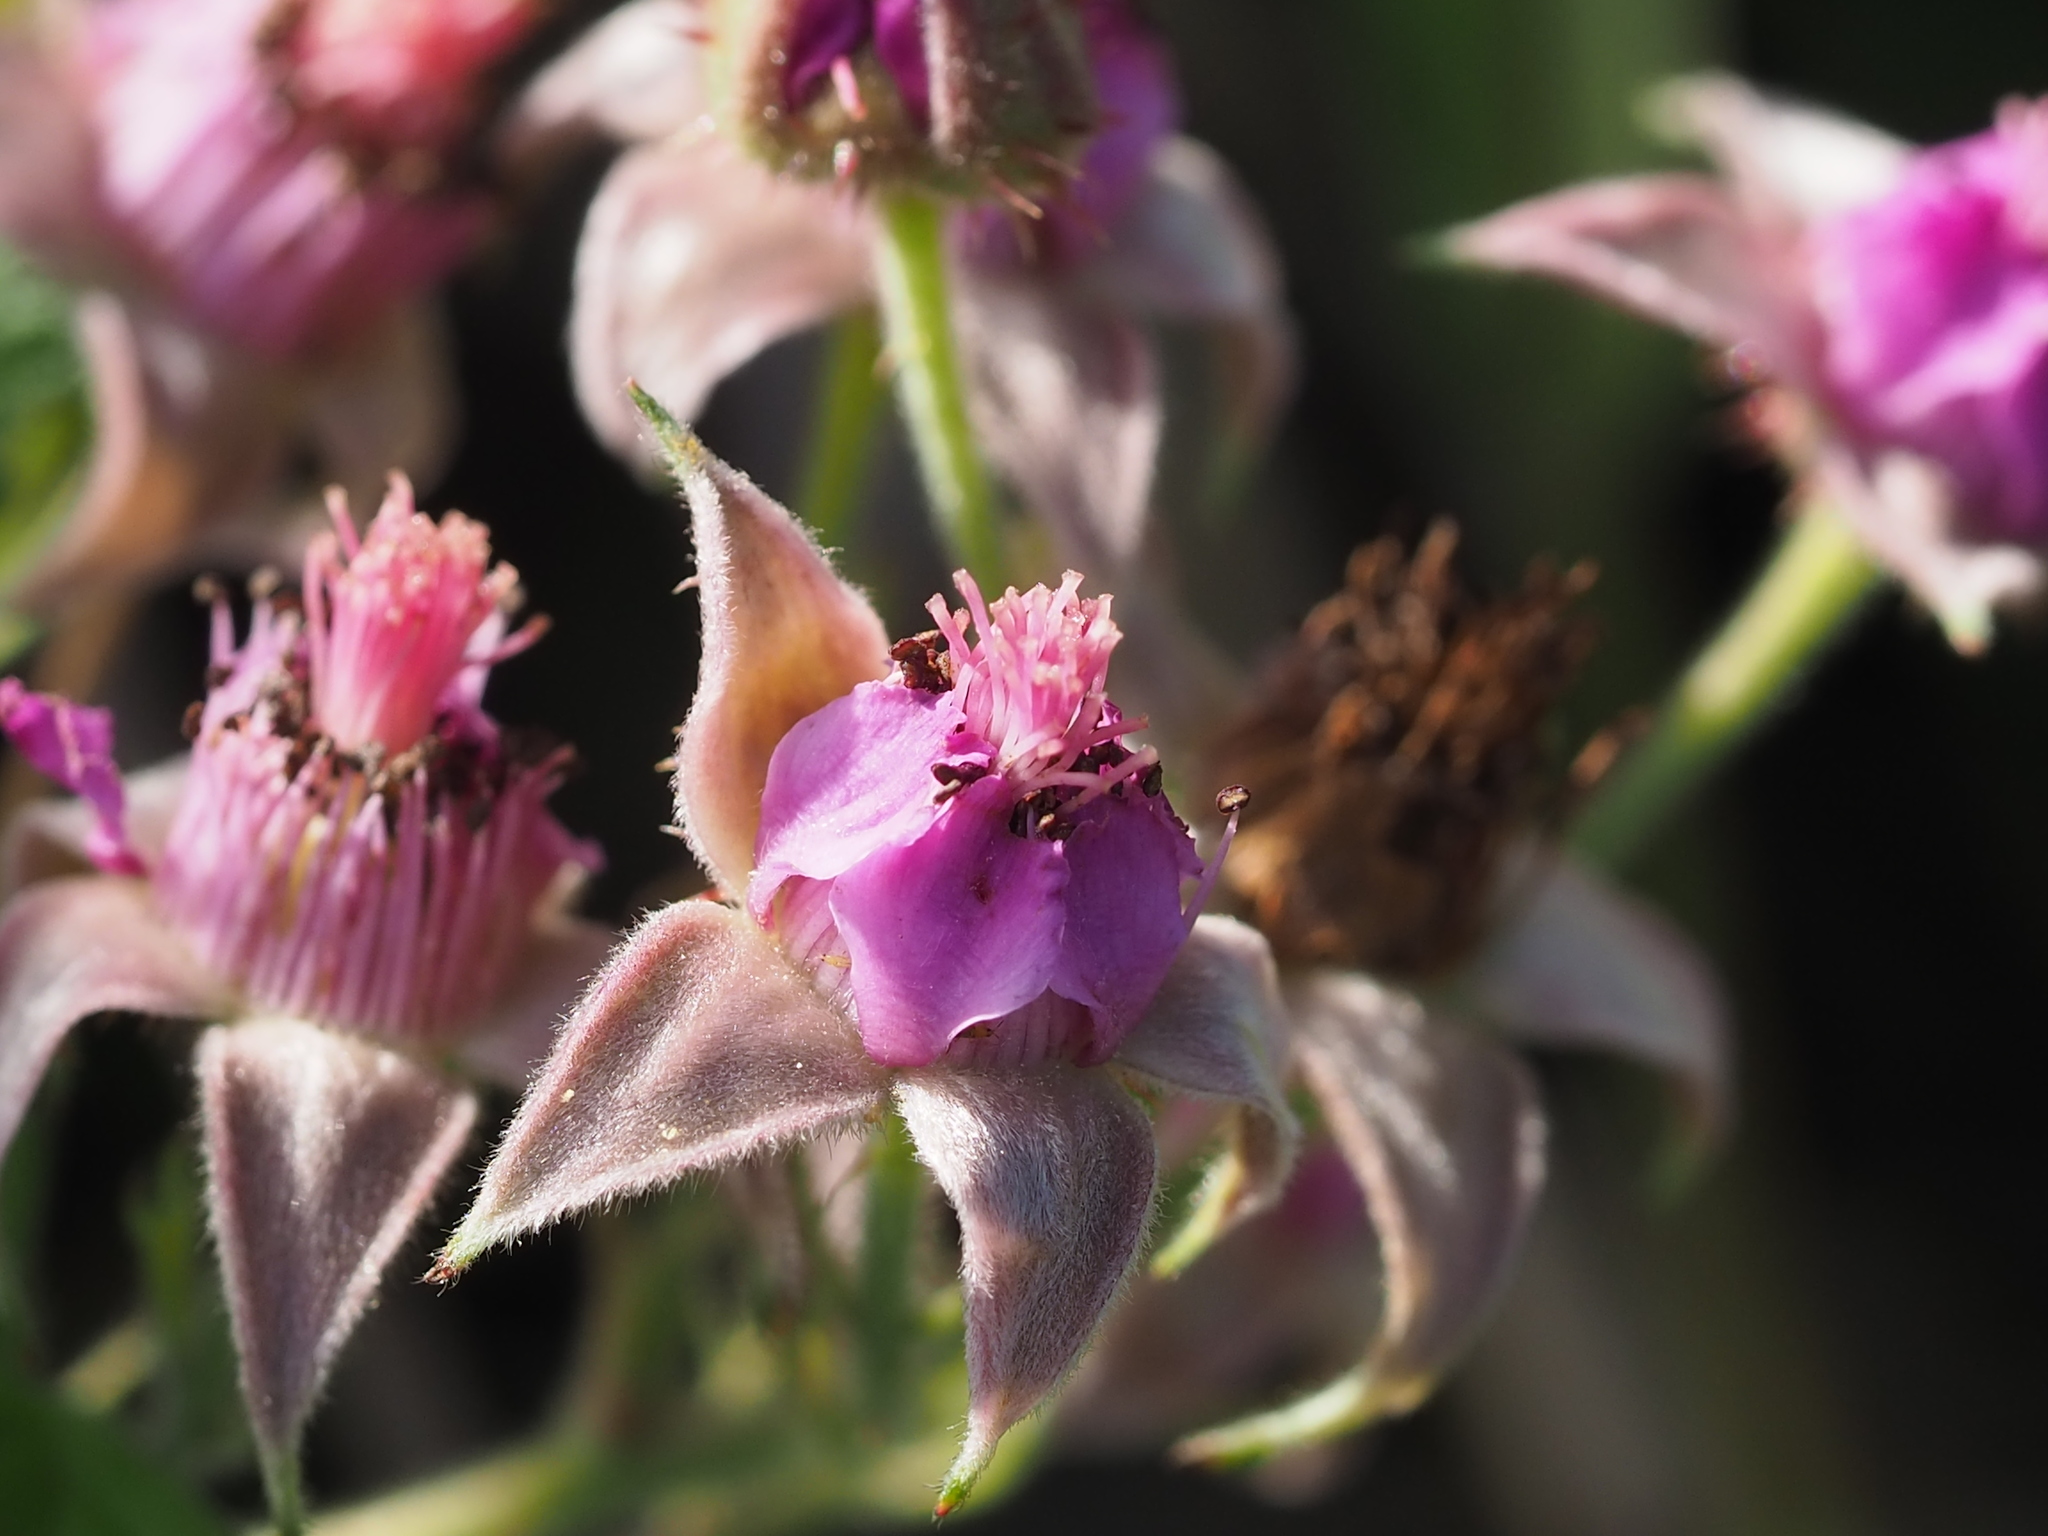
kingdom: Plantae
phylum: Tracheophyta
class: Magnoliopsida
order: Rosales
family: Rosaceae
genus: Rubus
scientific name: Rubus parvifolius
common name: Threeleaf blackberry
